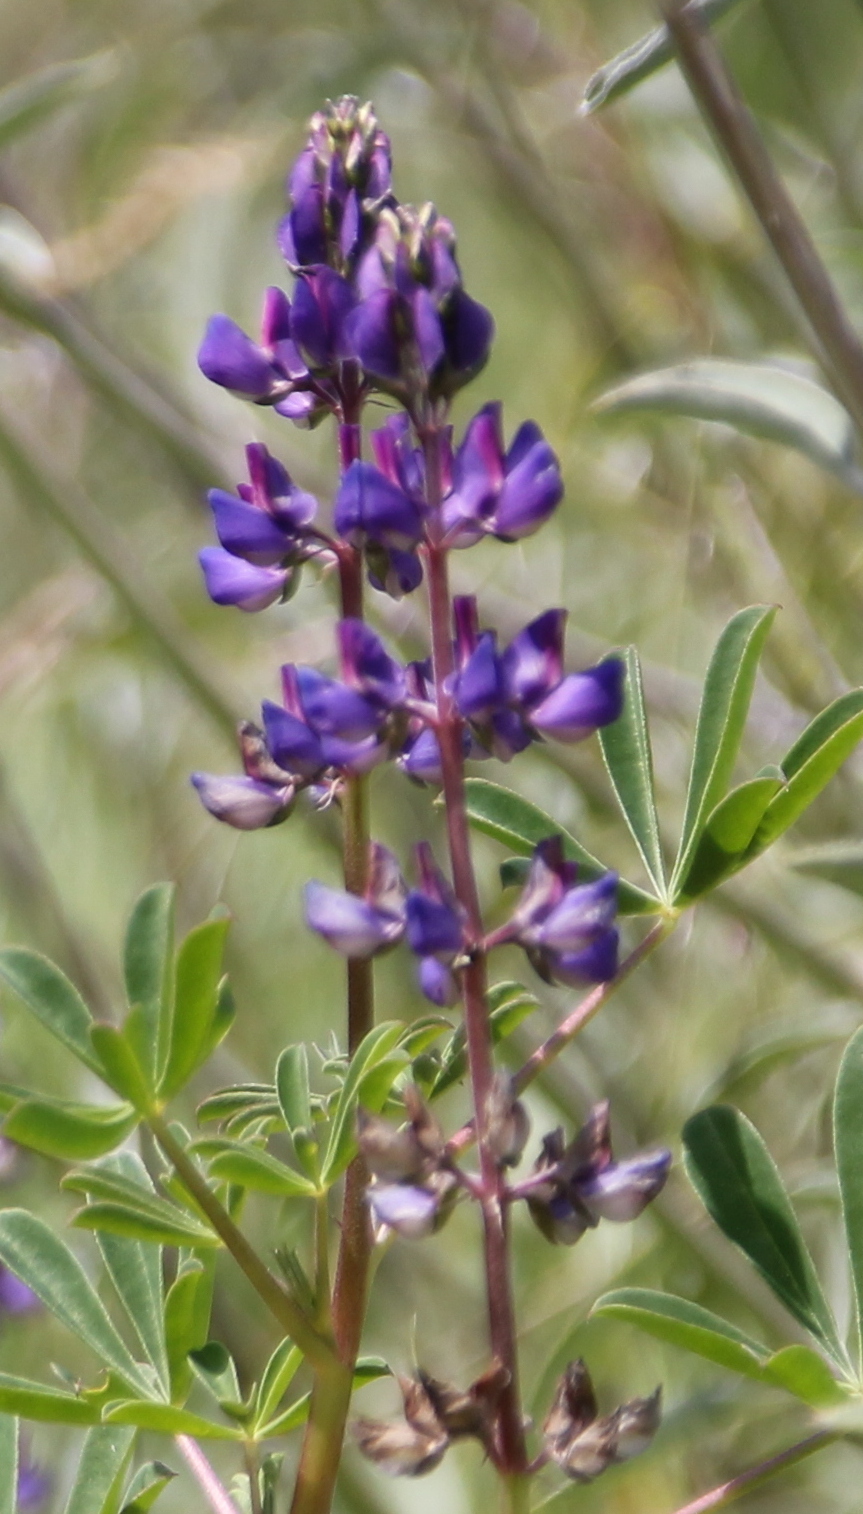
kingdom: Plantae
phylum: Tracheophyta
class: Magnoliopsida
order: Fabales
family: Fabaceae
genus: Lupinus
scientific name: Lupinus succulentus
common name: Arroyo lupine
